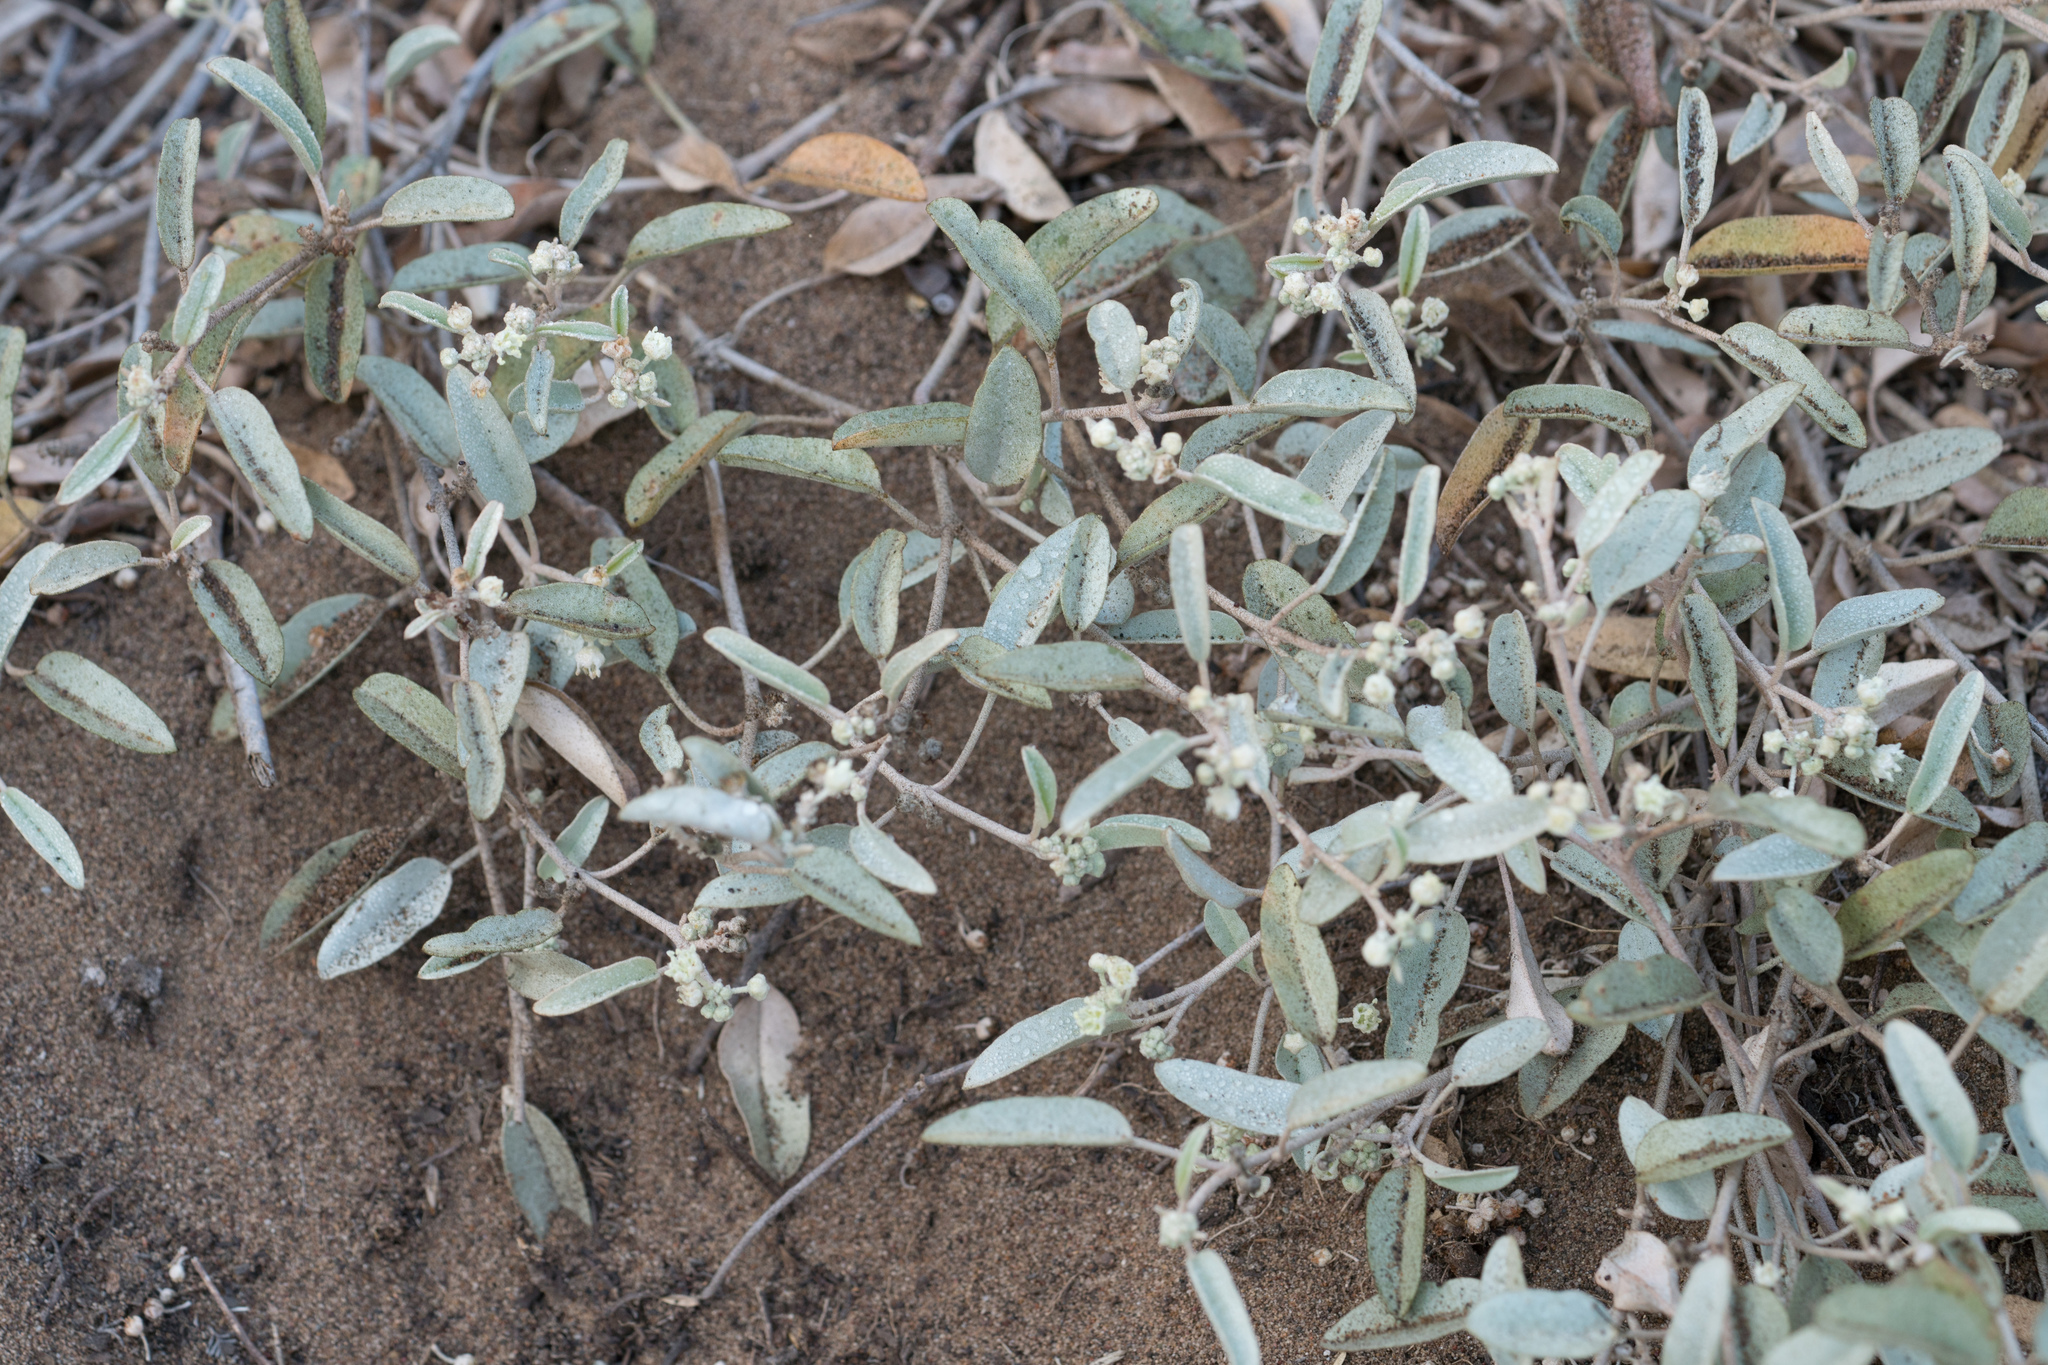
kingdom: Plantae
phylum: Tracheophyta
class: Magnoliopsida
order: Malpighiales
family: Euphorbiaceae
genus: Croton
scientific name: Croton californicus
